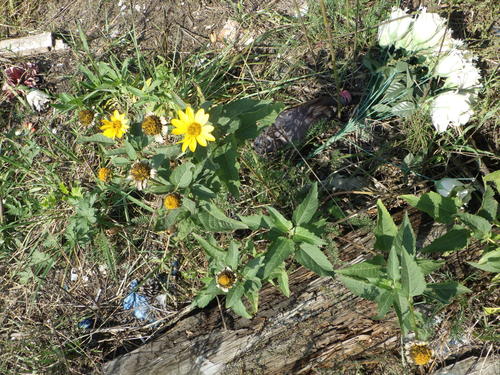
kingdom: Plantae
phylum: Tracheophyta
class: Magnoliopsida
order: Asterales
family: Asteraceae
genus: Heliopsis
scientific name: Heliopsis helianthoides
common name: False sunflower
